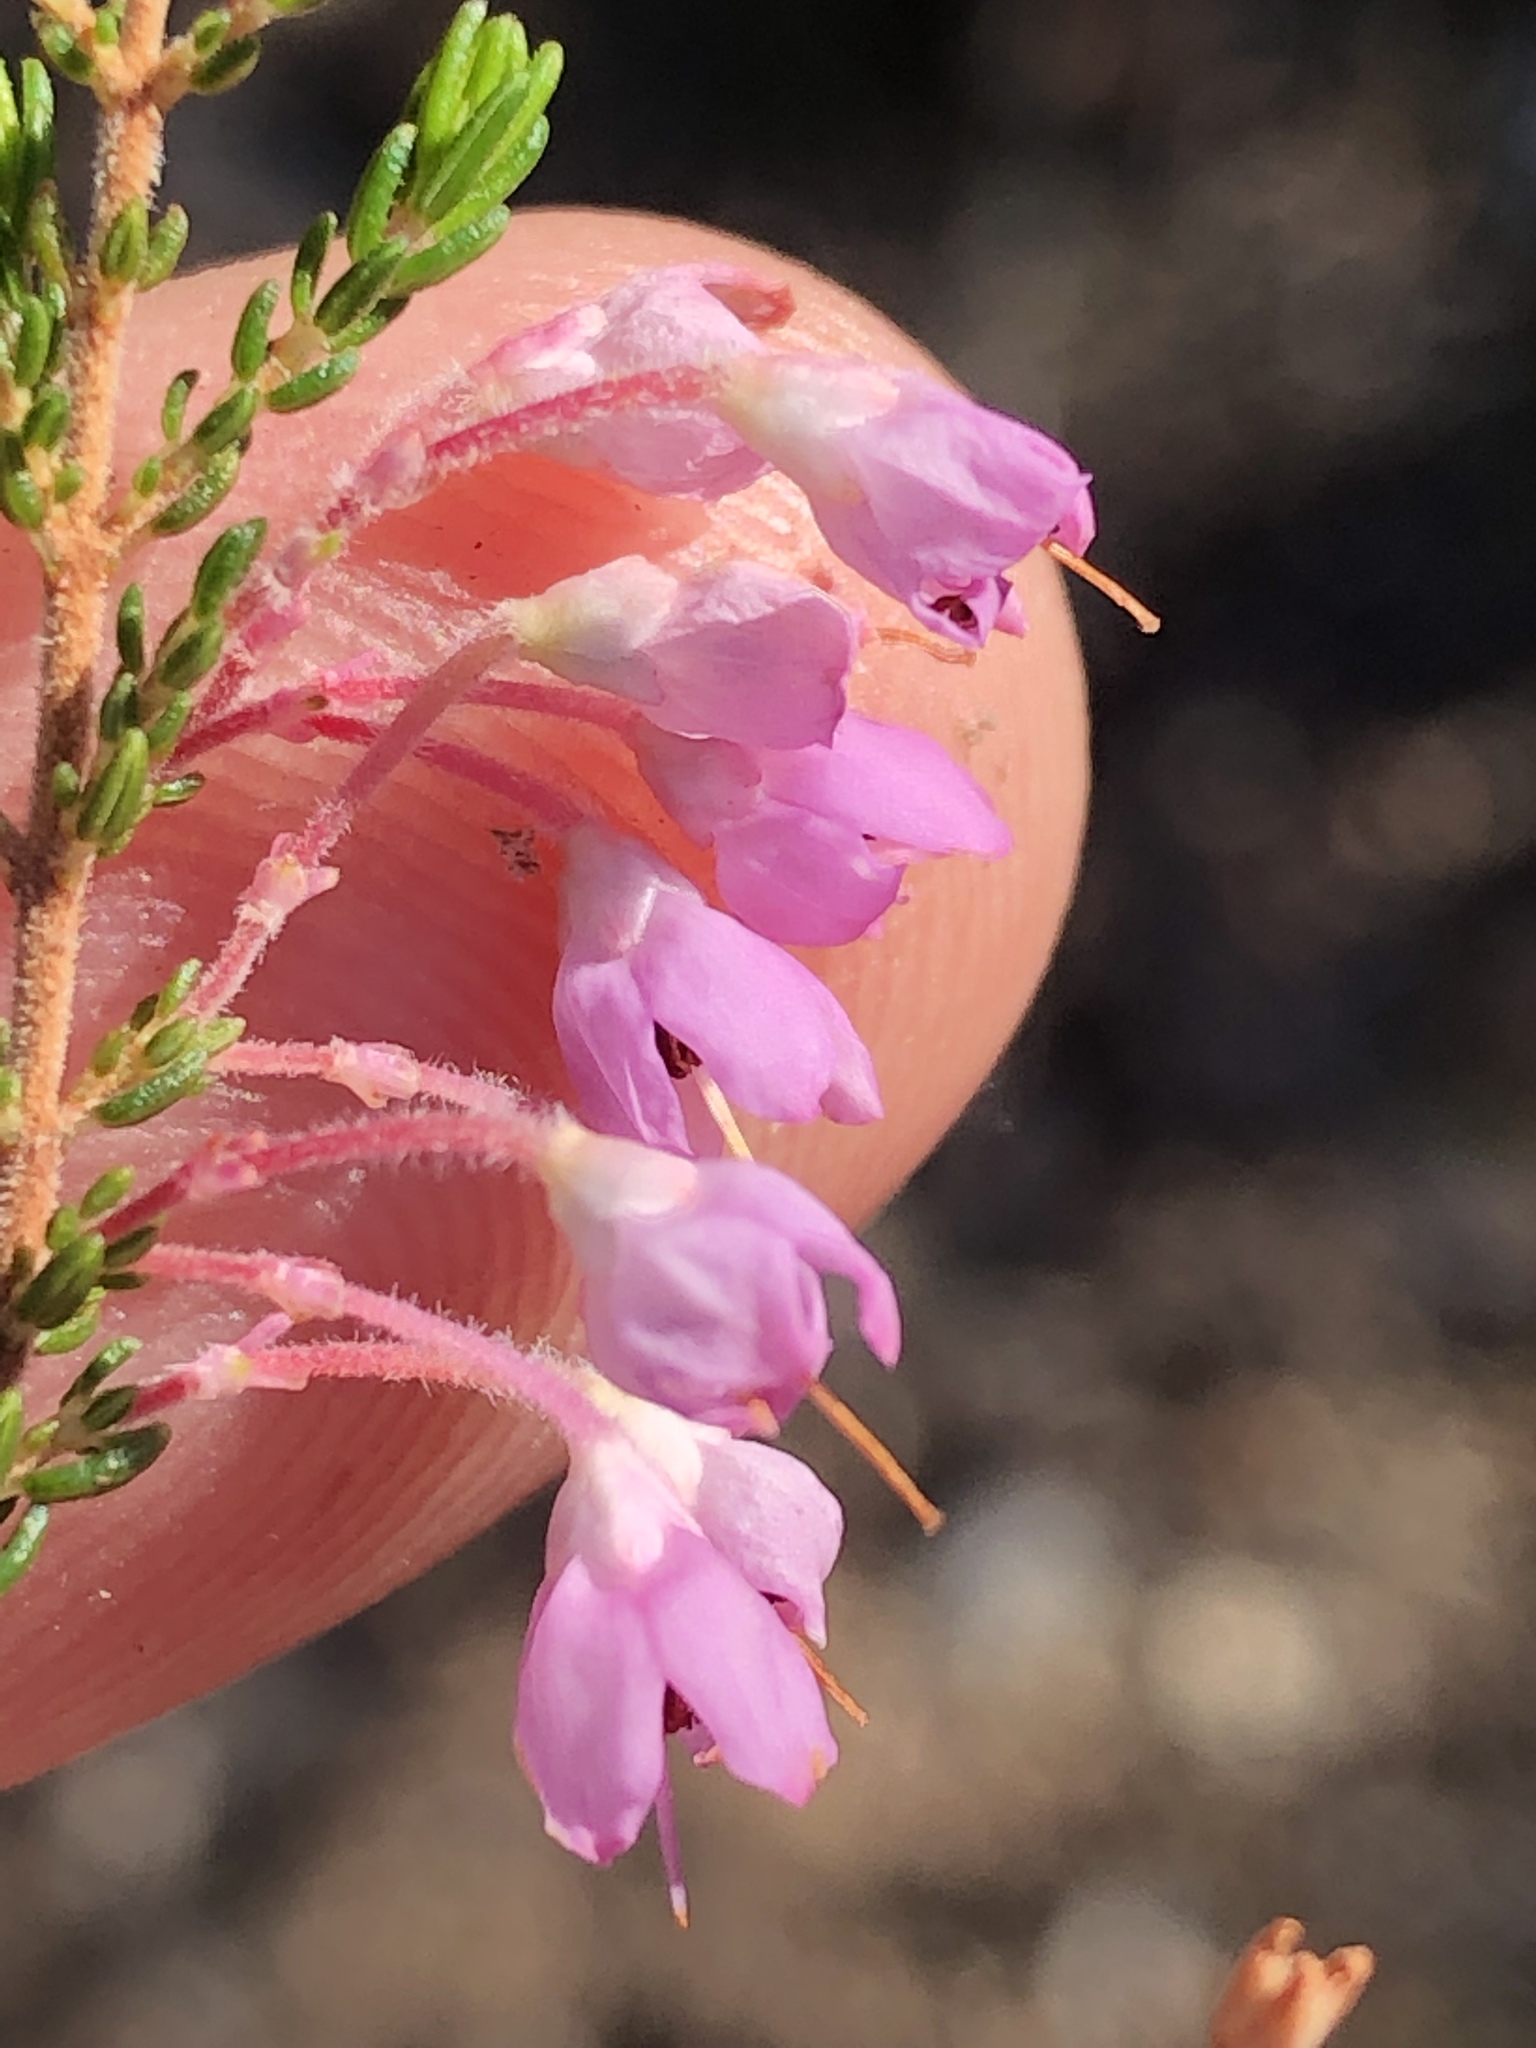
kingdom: Plantae
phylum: Tracheophyta
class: Magnoliopsida
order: Ericales
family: Ericaceae
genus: Erica
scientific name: Erica newdigatei
